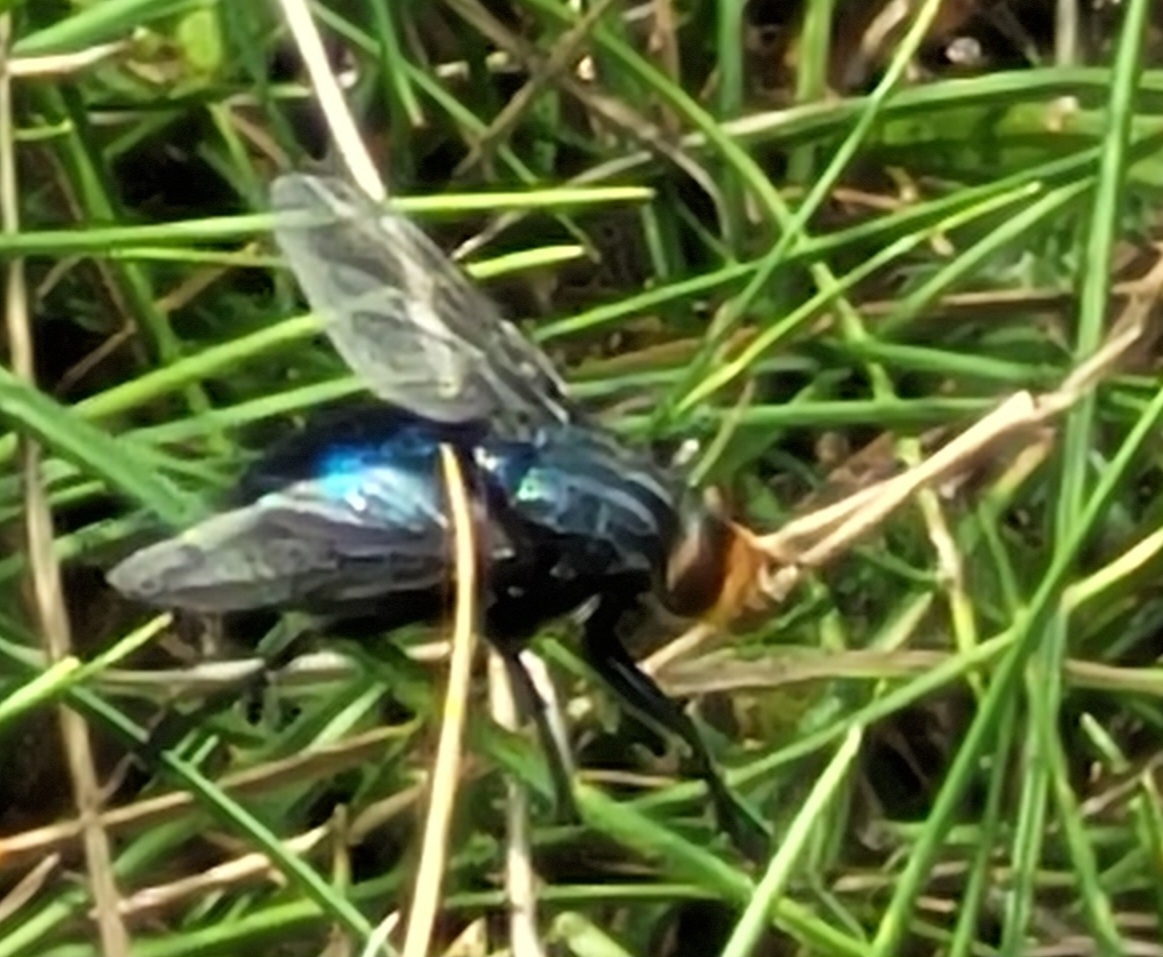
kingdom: Animalia
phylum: Arthropoda
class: Insecta
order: Diptera
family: Calliphoridae
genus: Cynomya
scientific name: Cynomya mortuorum
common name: Bluebottle blow fly
